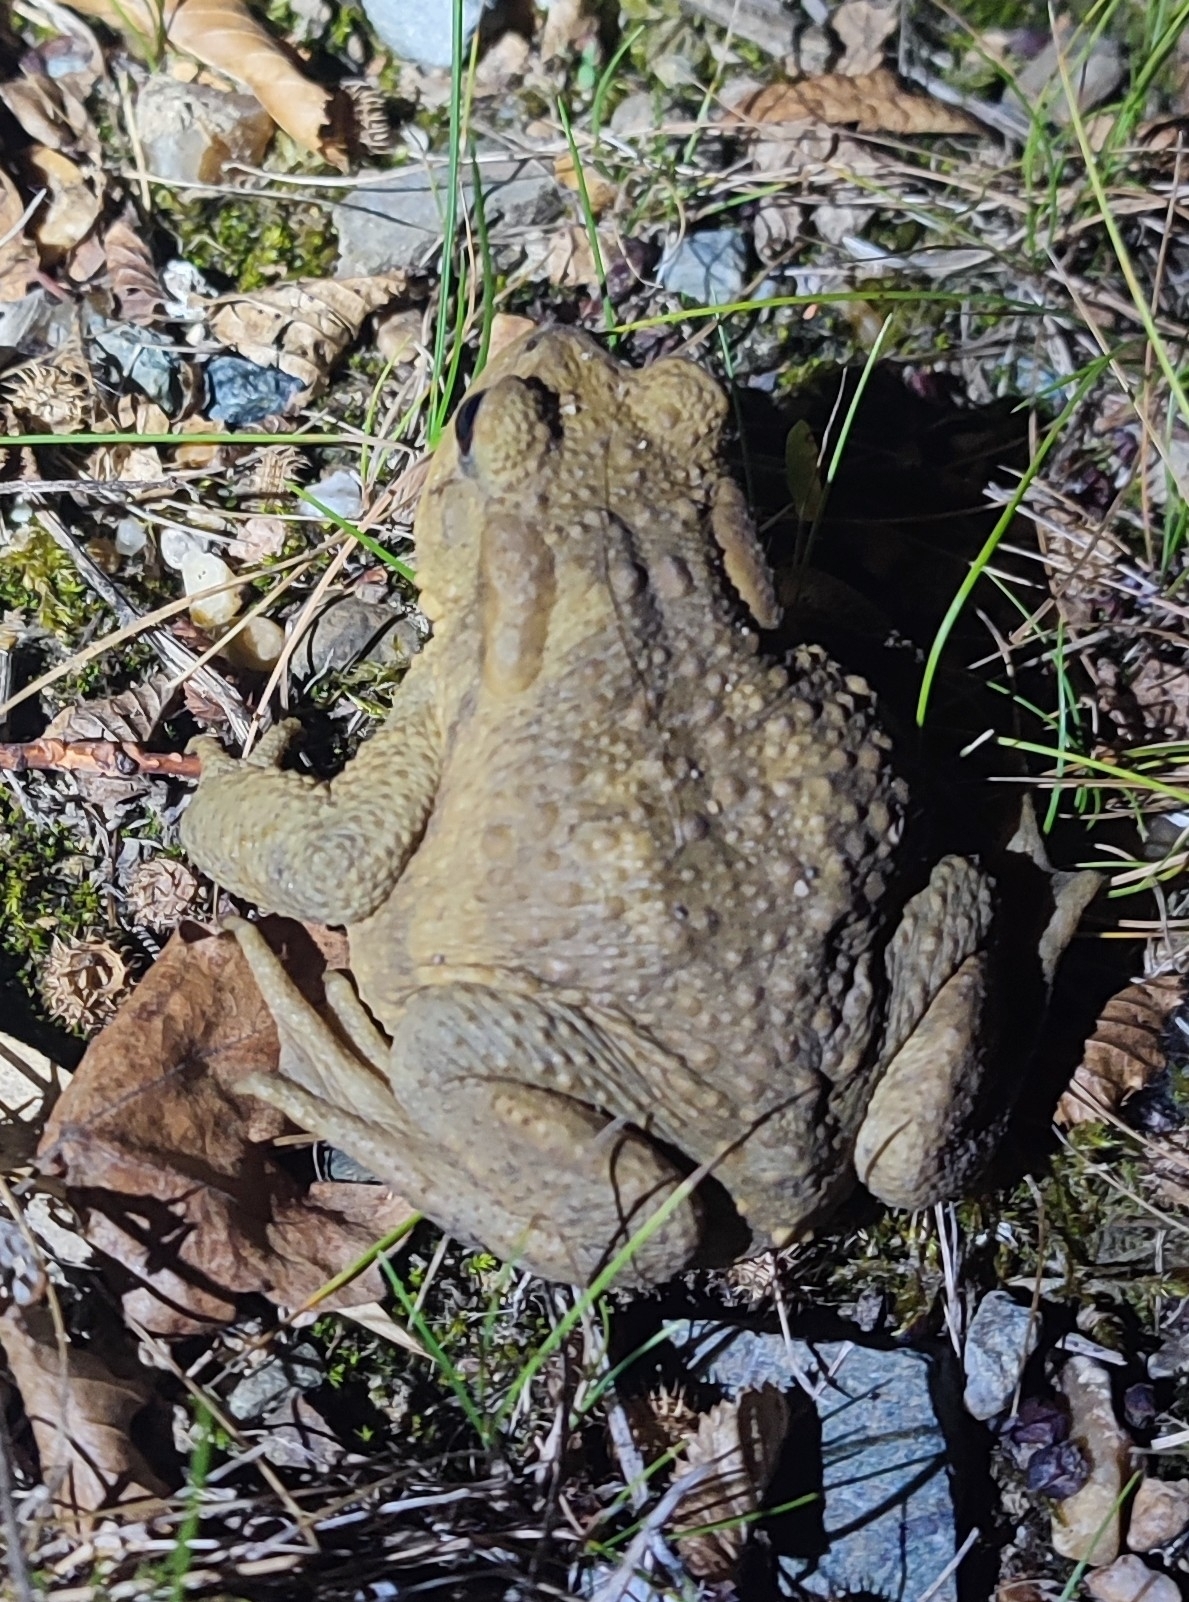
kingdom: Animalia
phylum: Chordata
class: Amphibia
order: Anura
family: Bufonidae
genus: Bufo
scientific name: Bufo spinosus
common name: Western common toad
